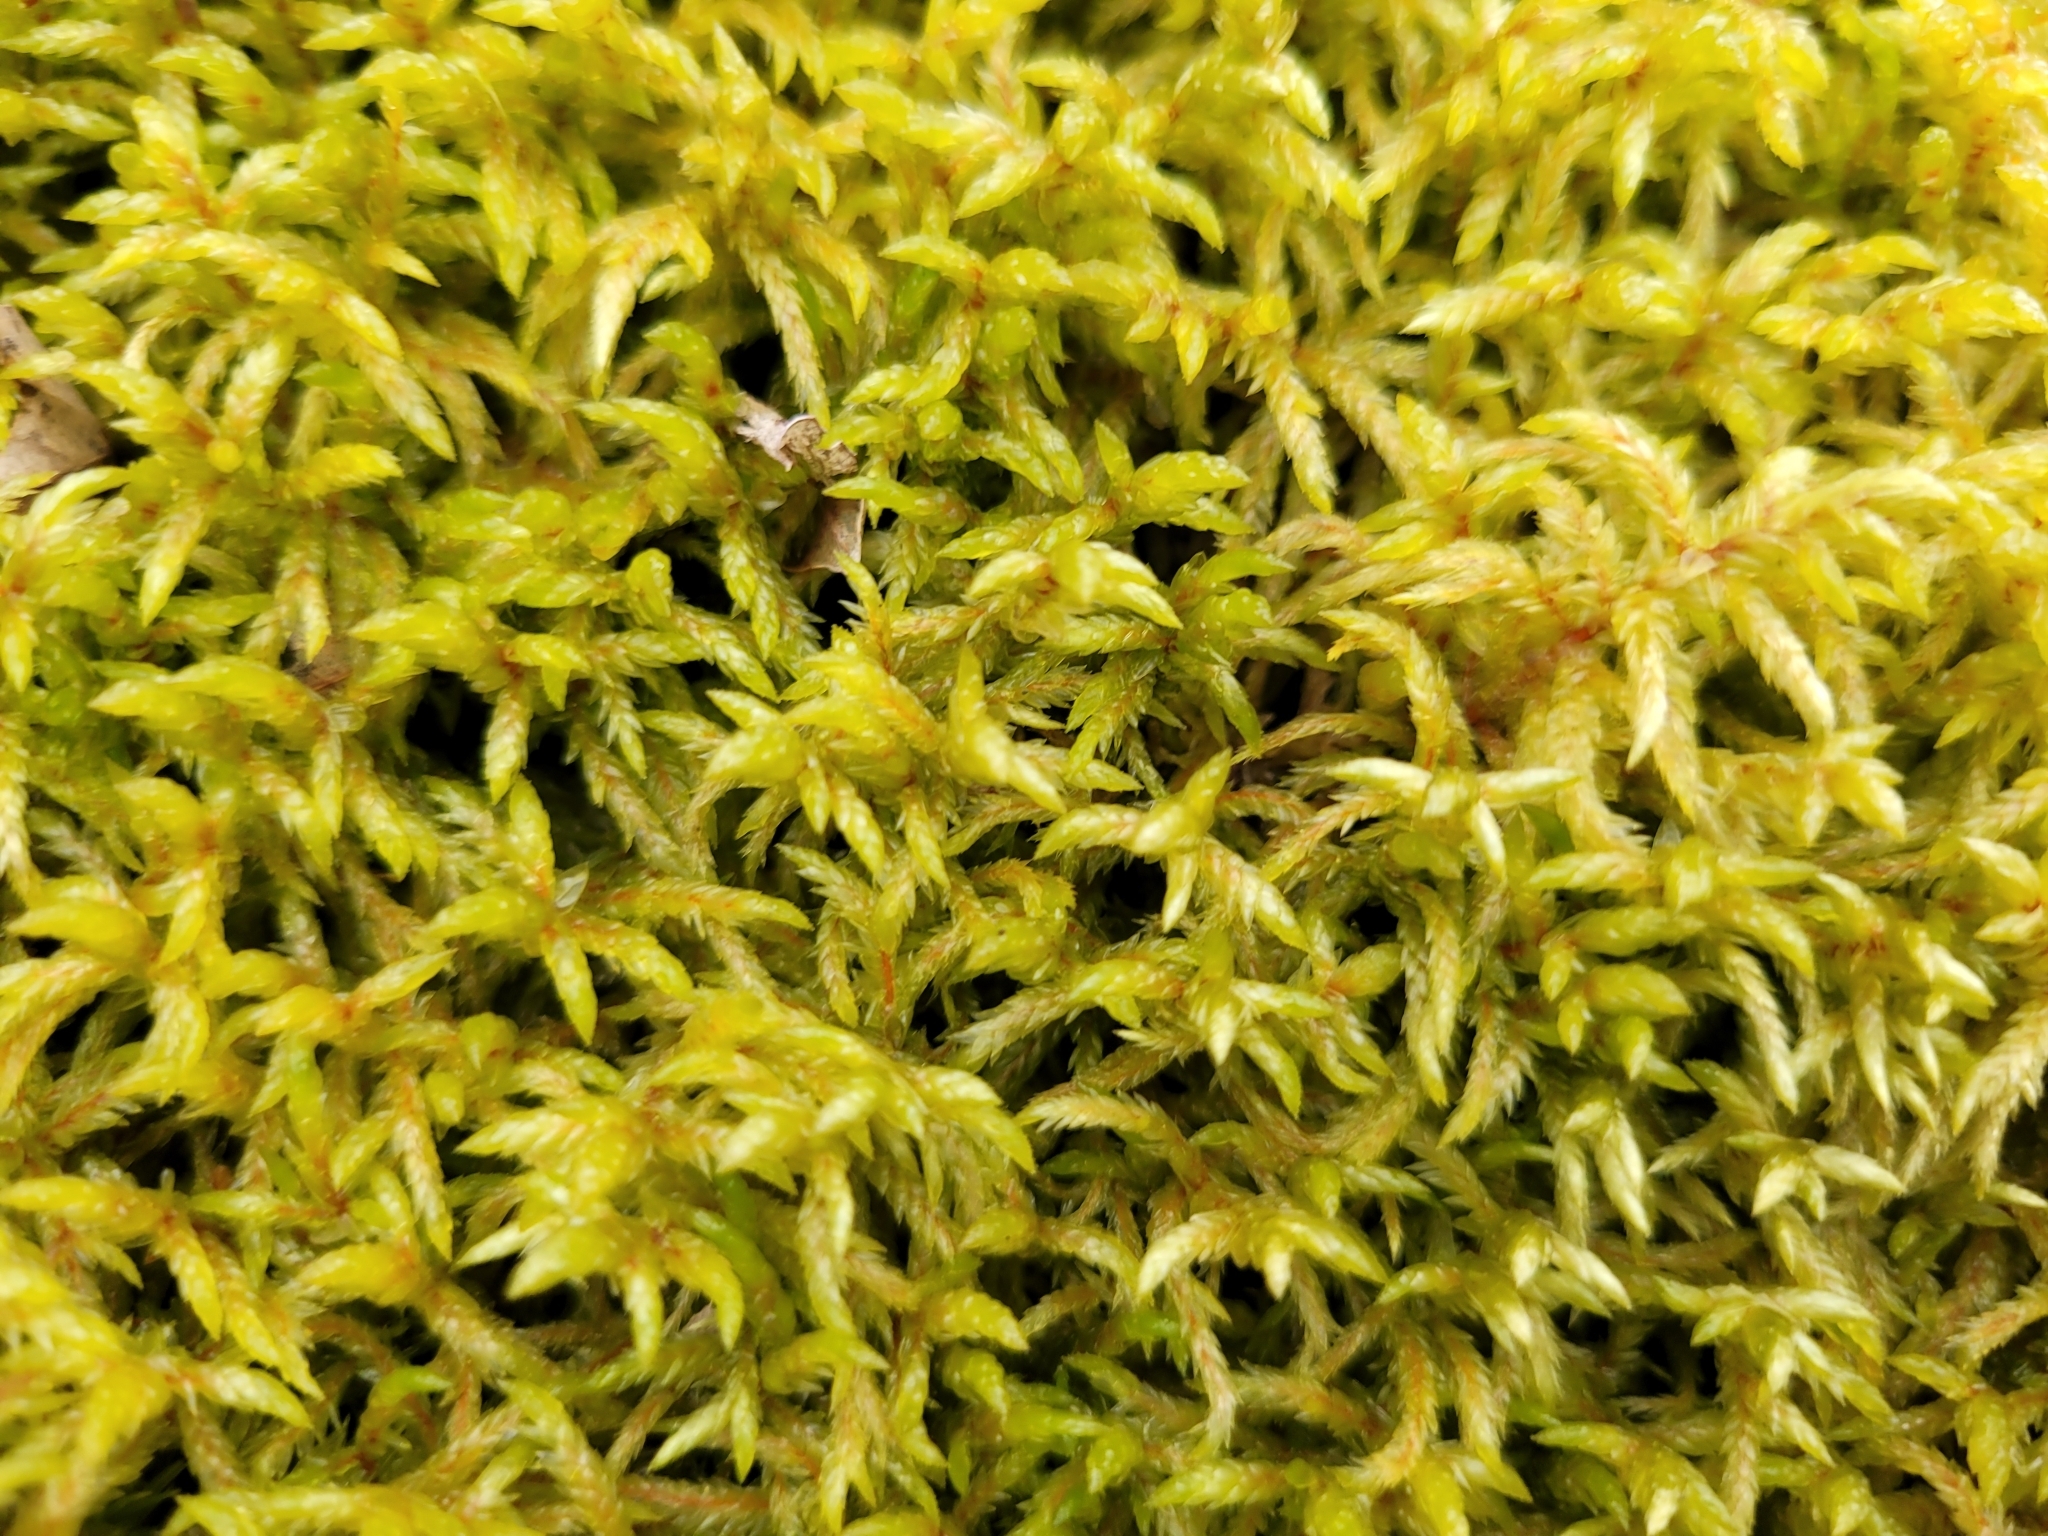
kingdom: Plantae
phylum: Bryophyta
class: Bryopsida
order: Hypnales
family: Hylocomiaceae
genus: Pleurozium
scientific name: Pleurozium schreberi
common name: Red-stemmed feather moss
